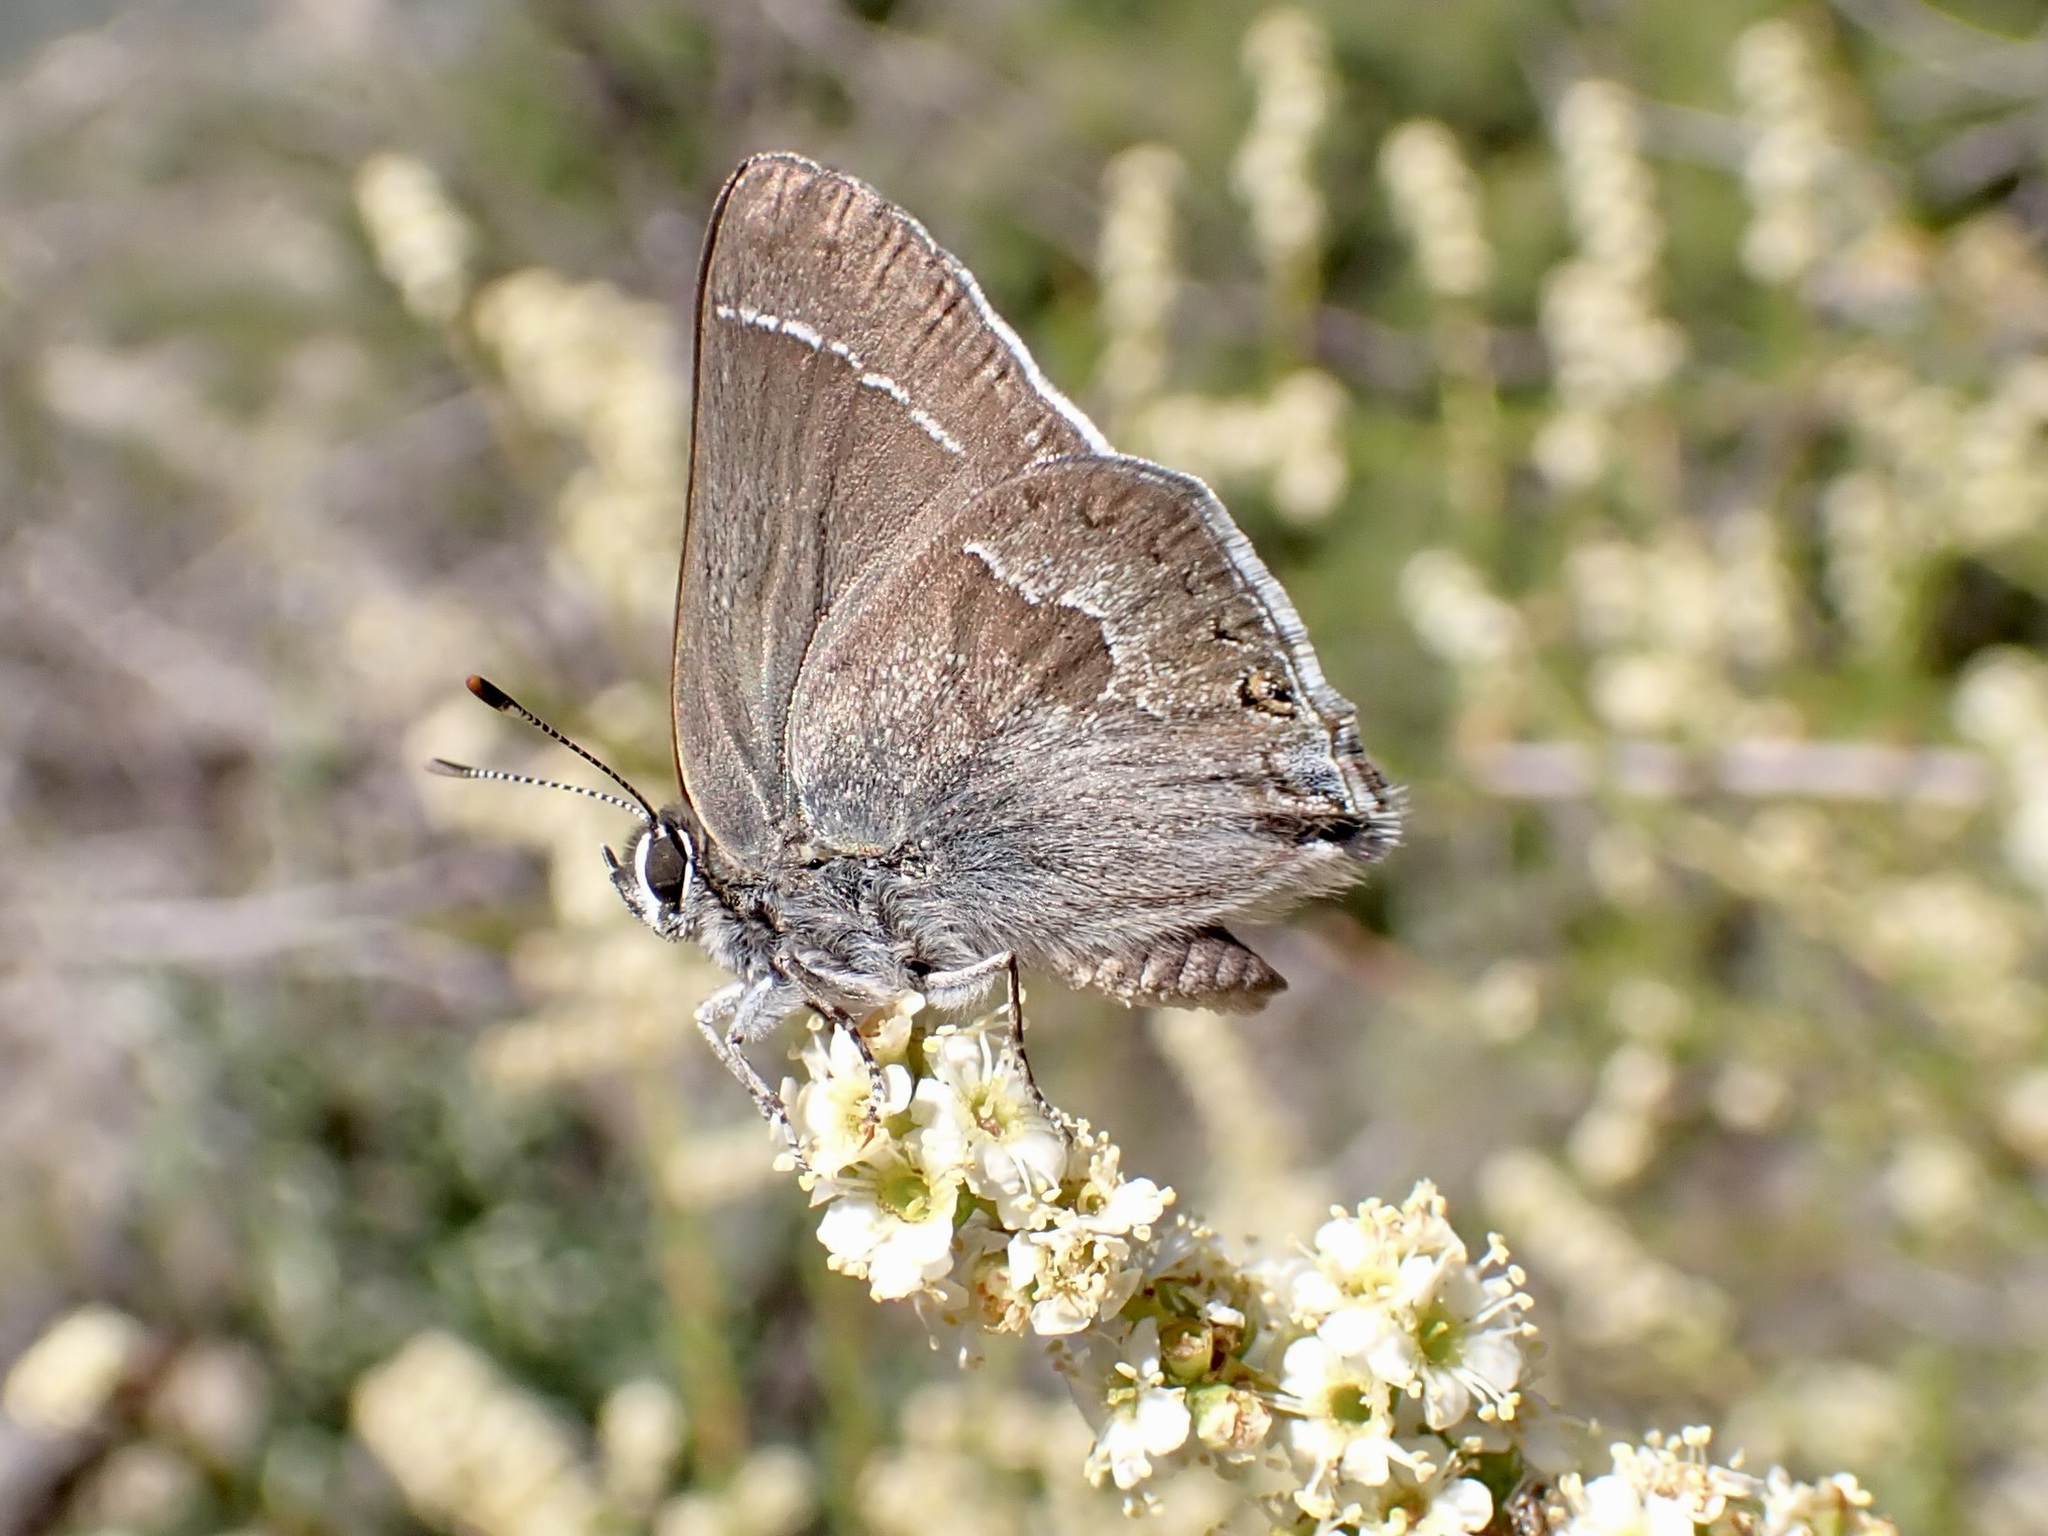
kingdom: Animalia
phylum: Arthropoda
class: Insecta
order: Lepidoptera
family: Lycaenidae
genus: Thecla
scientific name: Thecla tetra
